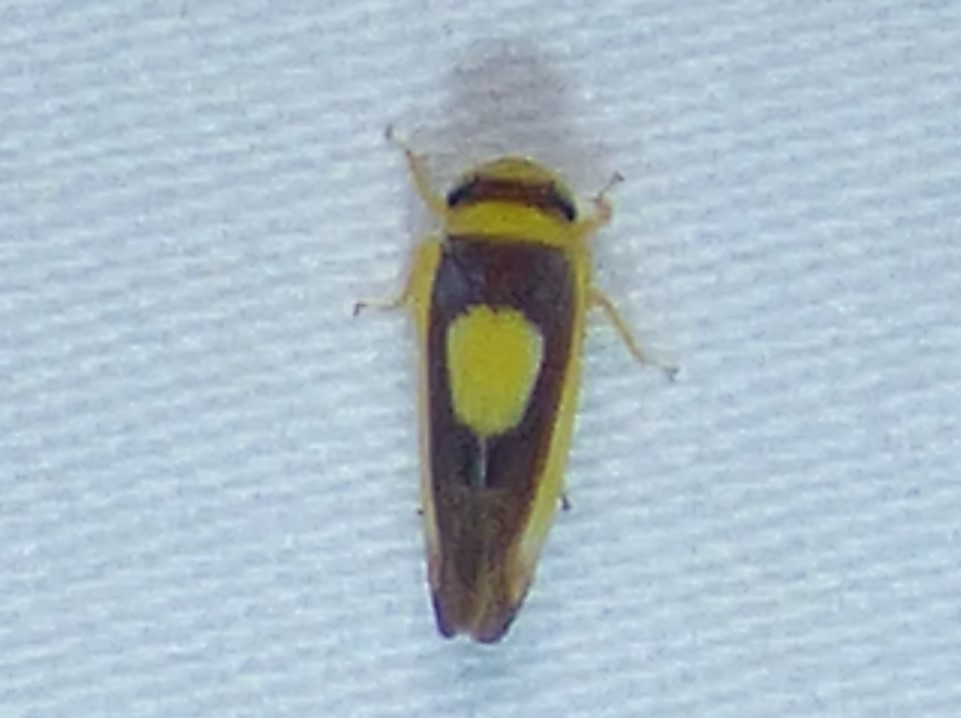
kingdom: Animalia
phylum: Arthropoda
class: Insecta
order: Hemiptera
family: Cicadellidae
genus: Colladonus
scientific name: Colladonus clitellarius
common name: The saddleback leafhopper
